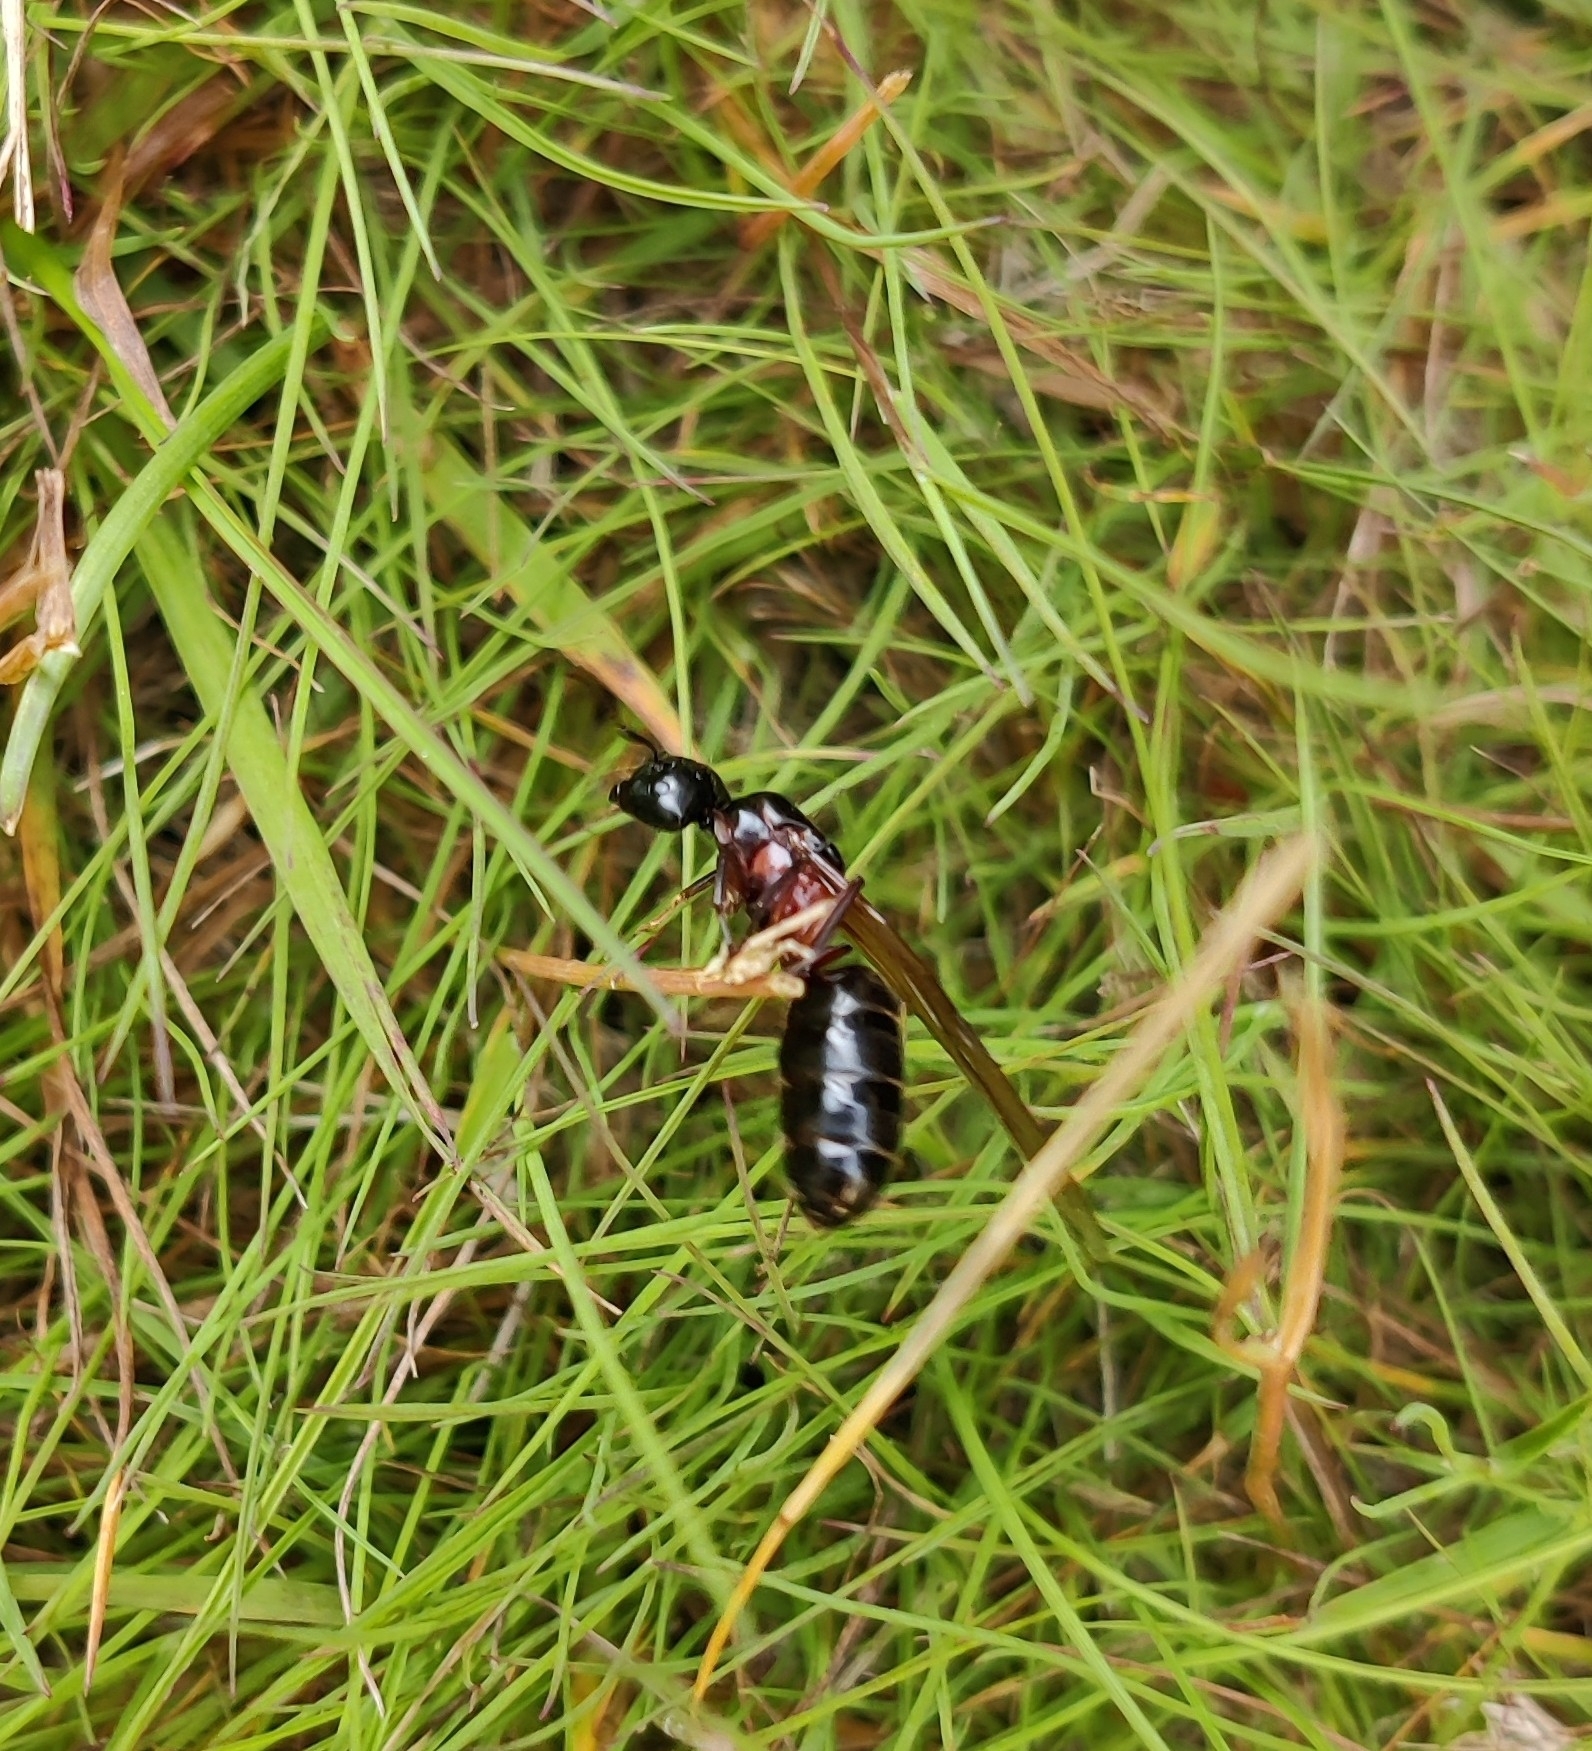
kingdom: Animalia
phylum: Arthropoda
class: Insecta
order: Hymenoptera
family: Formicidae
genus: Camponotus
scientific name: Camponotus herculeanus
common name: Hercules ant
